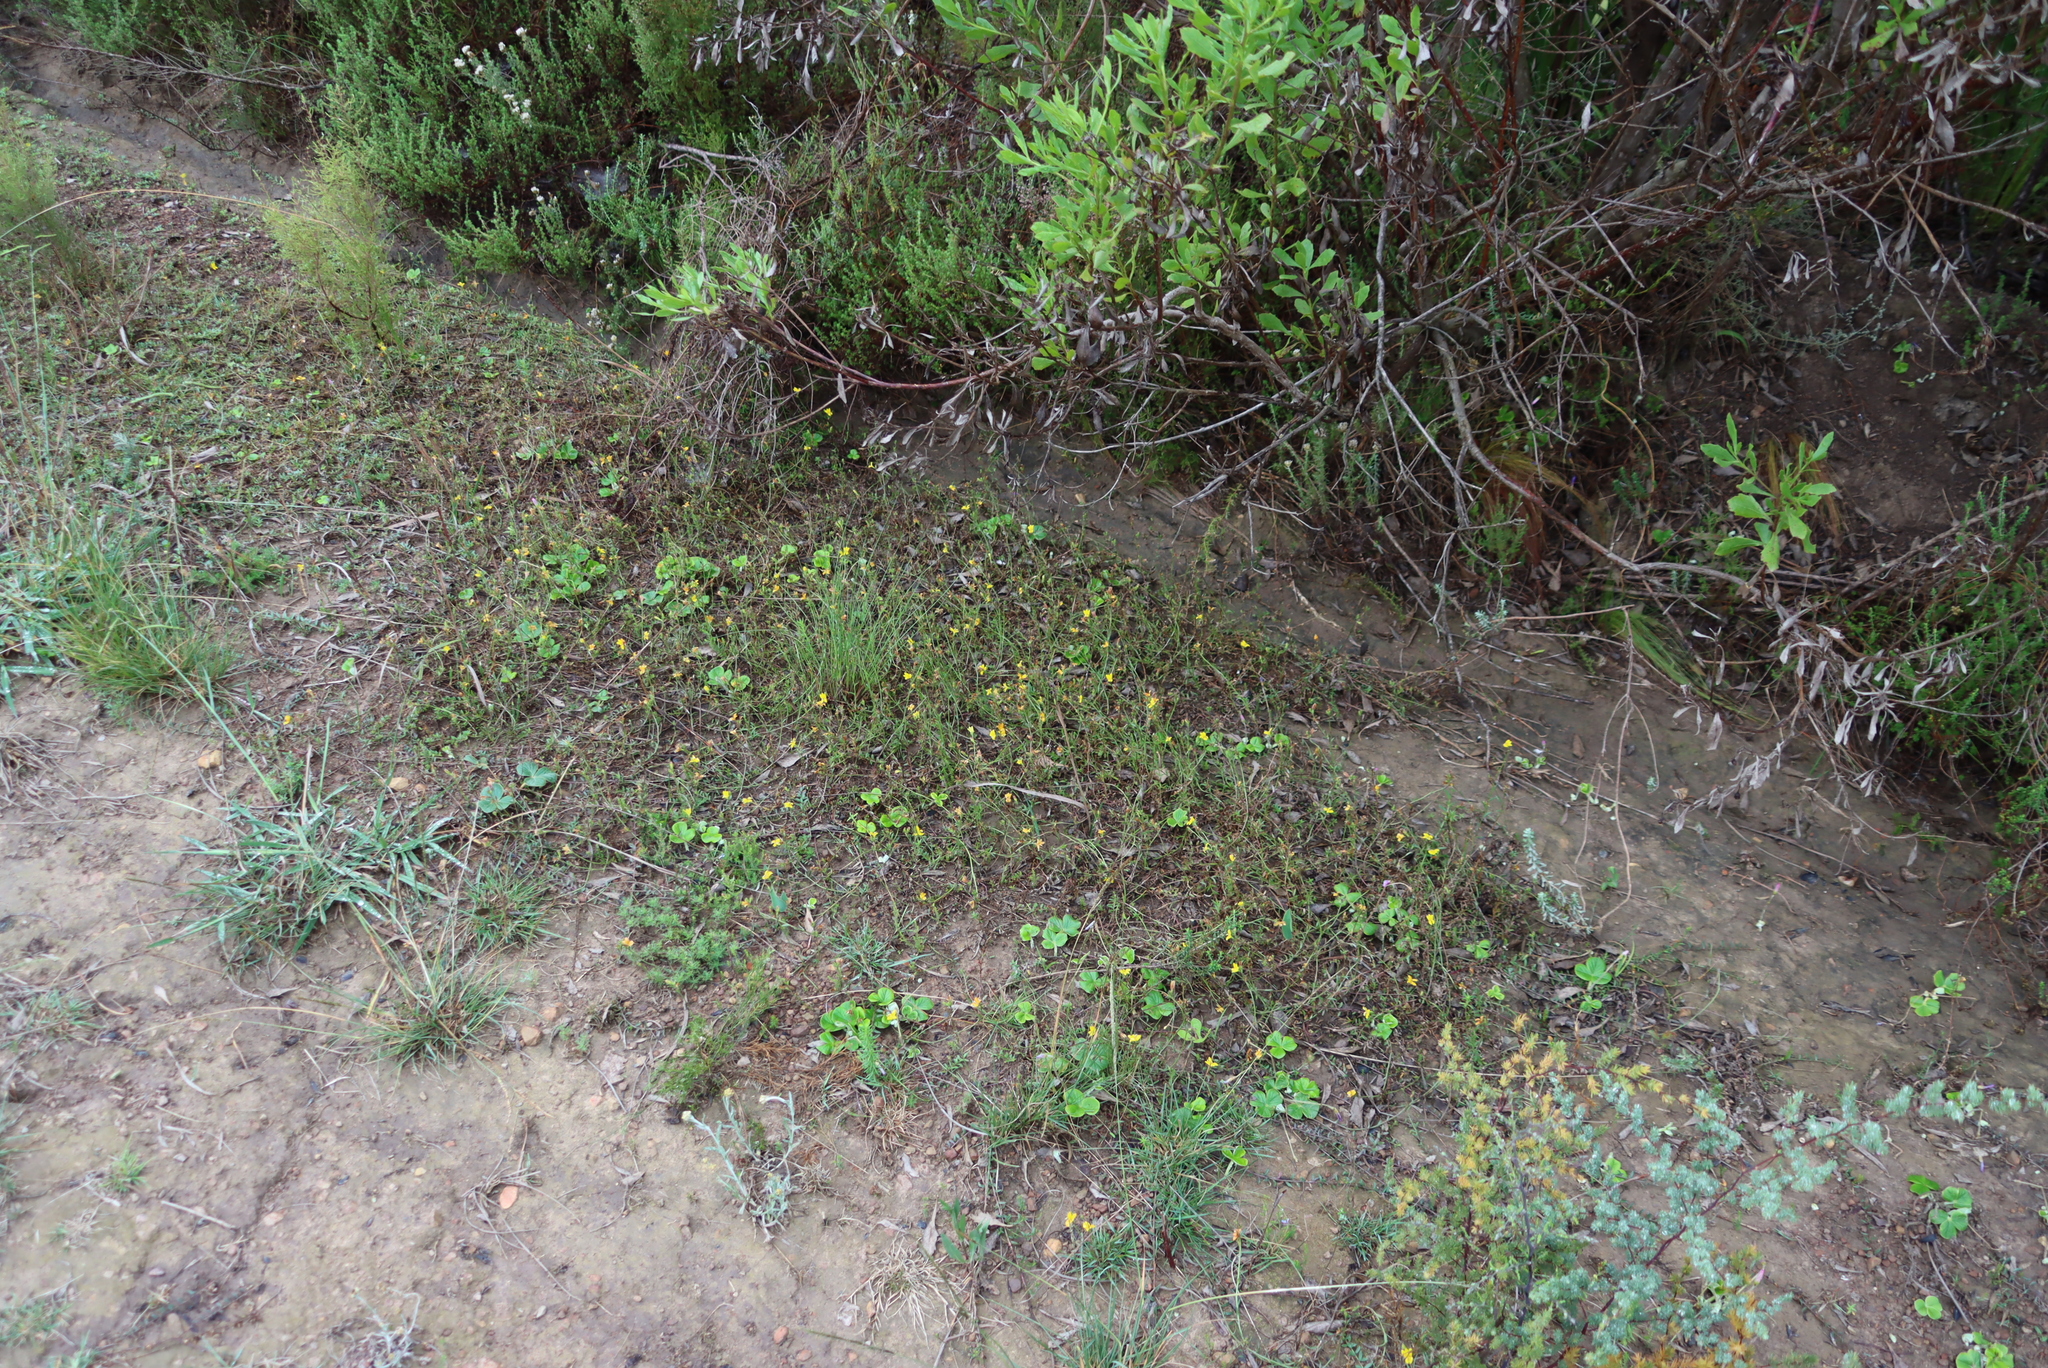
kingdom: Plantae
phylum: Tracheophyta
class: Magnoliopsida
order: Asterales
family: Campanulaceae
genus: Monopsis
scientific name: Monopsis lutea
